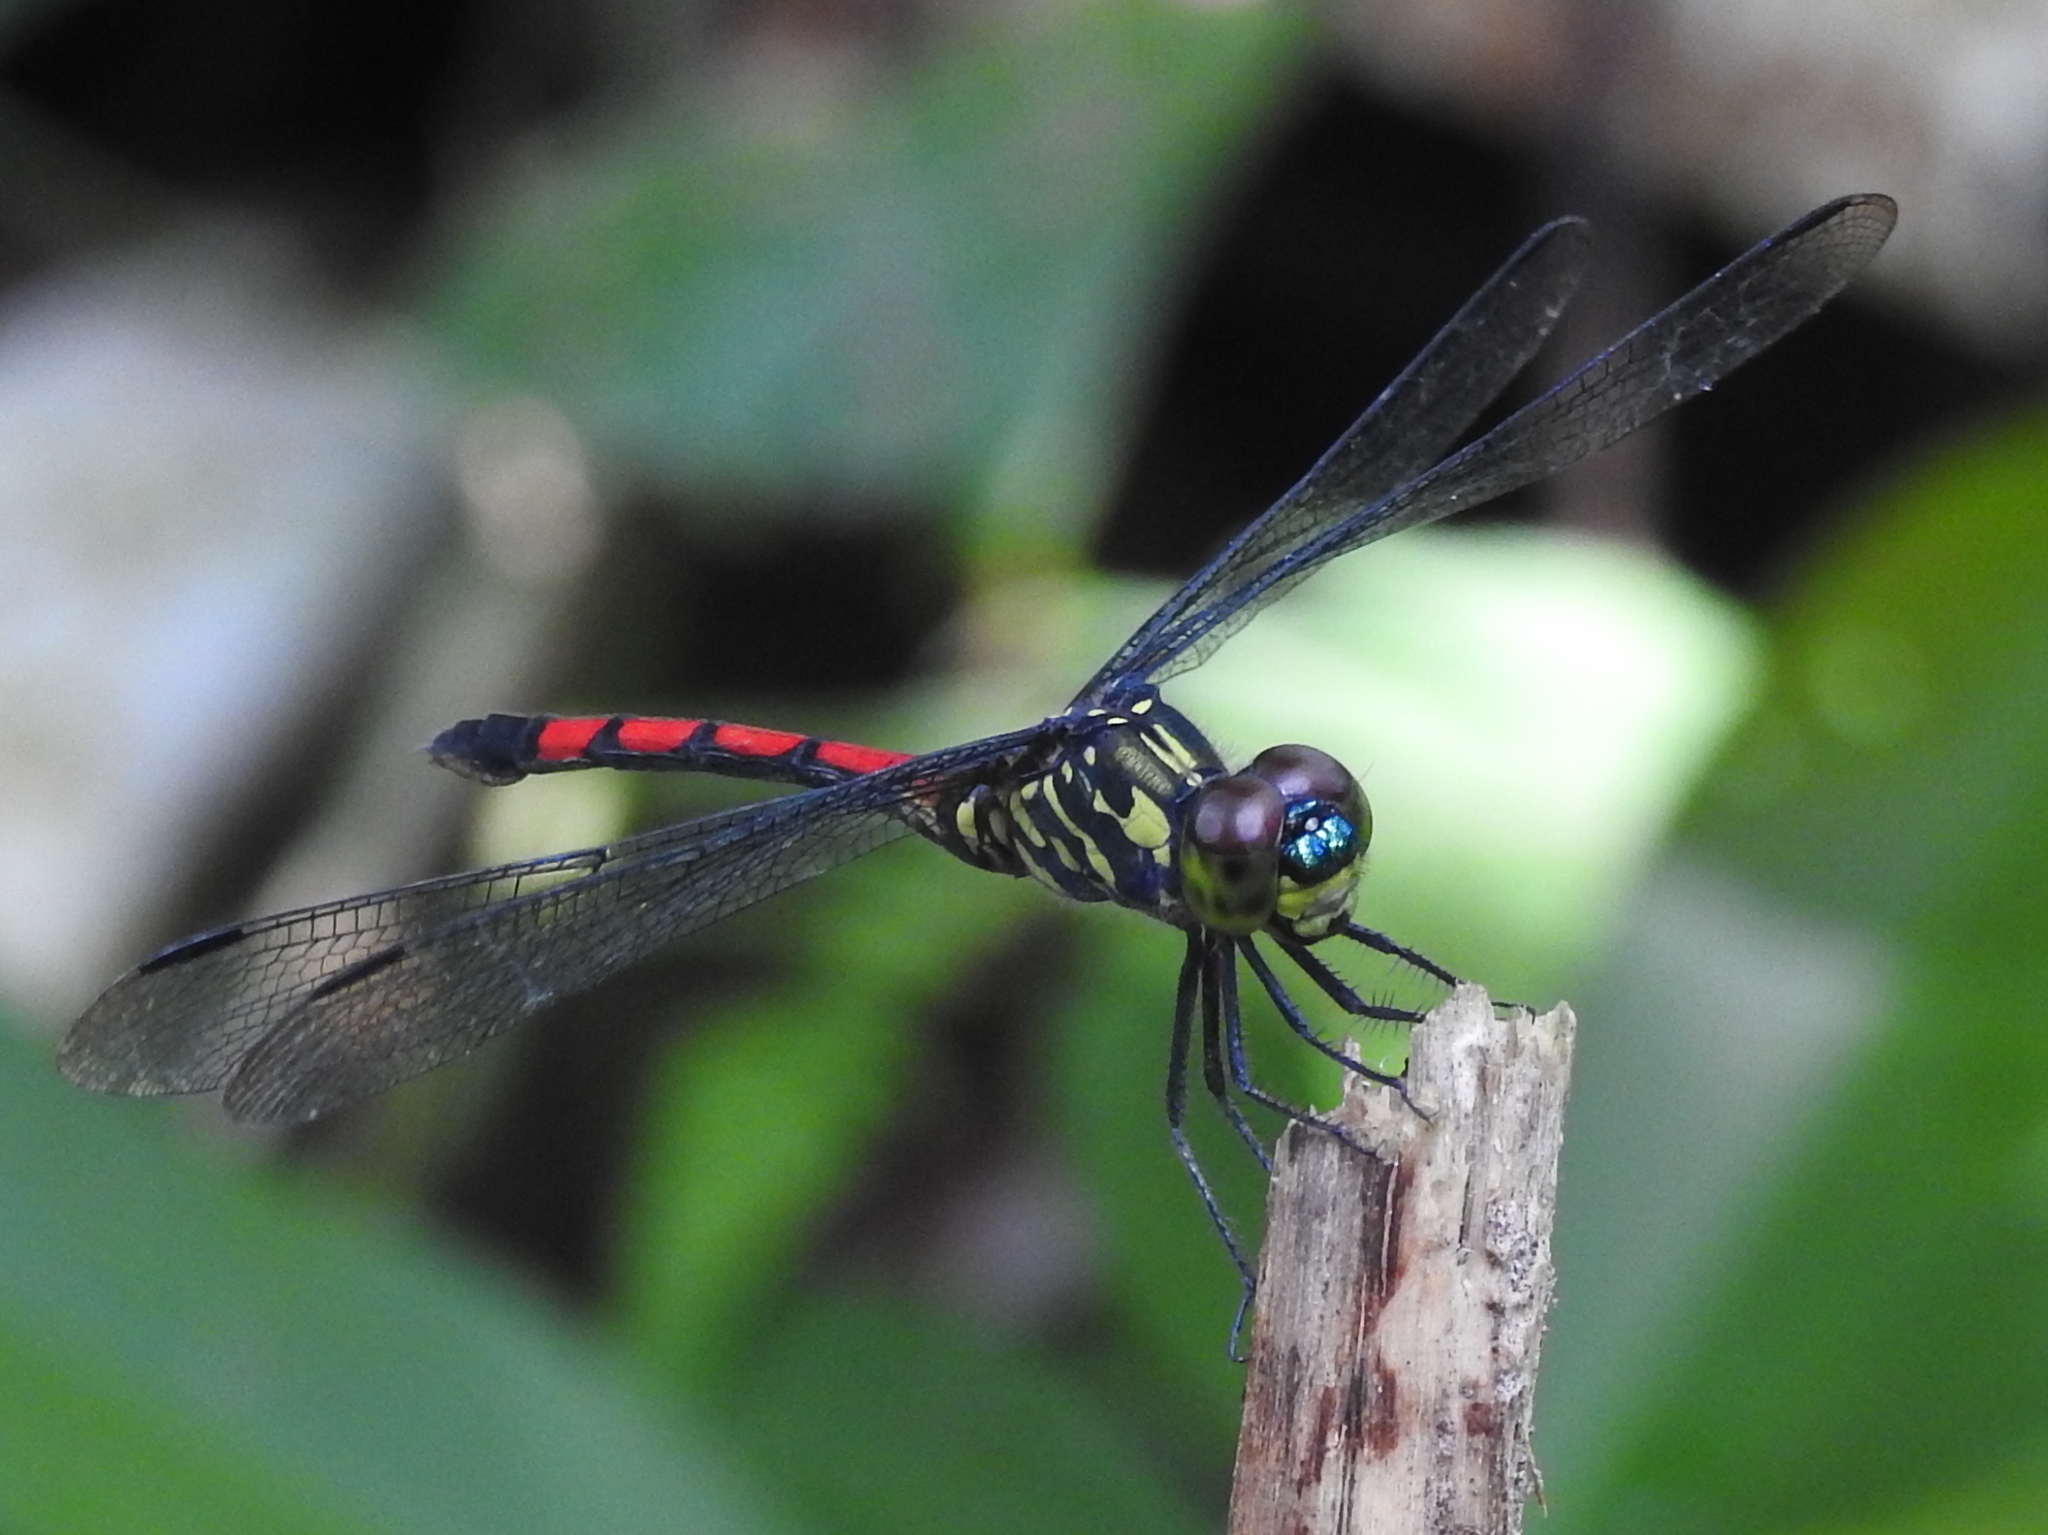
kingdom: Animalia
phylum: Arthropoda
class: Insecta
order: Odonata
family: Libellulidae
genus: Agrionoptera
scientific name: Agrionoptera insignis
